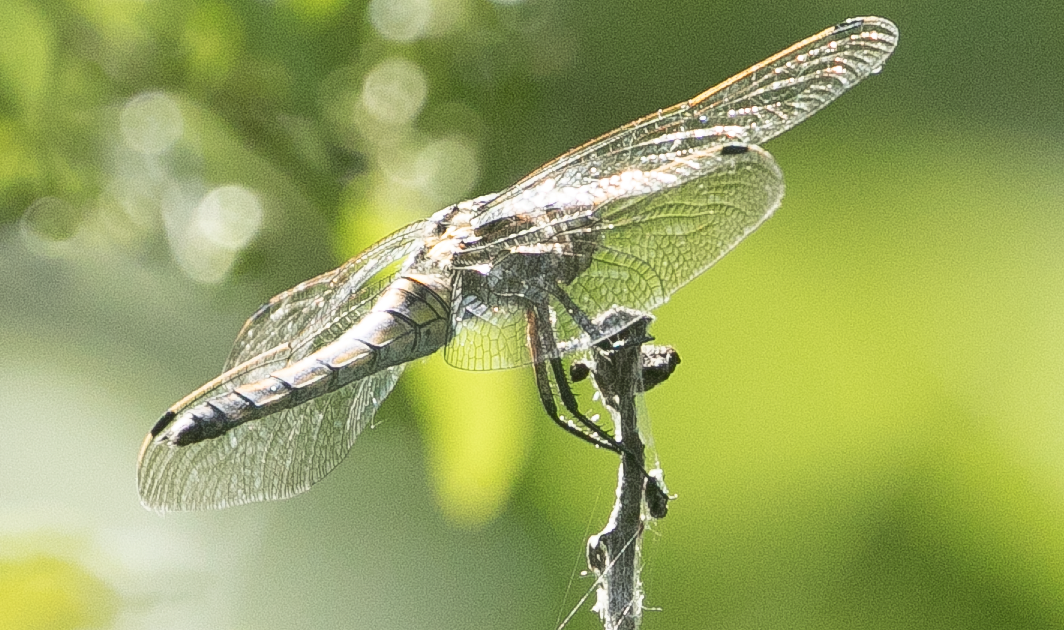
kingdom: Animalia
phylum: Arthropoda
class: Insecta
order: Odonata
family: Libellulidae
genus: Orthetrum
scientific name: Orthetrum cancellatum
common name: Black-tailed skimmer
